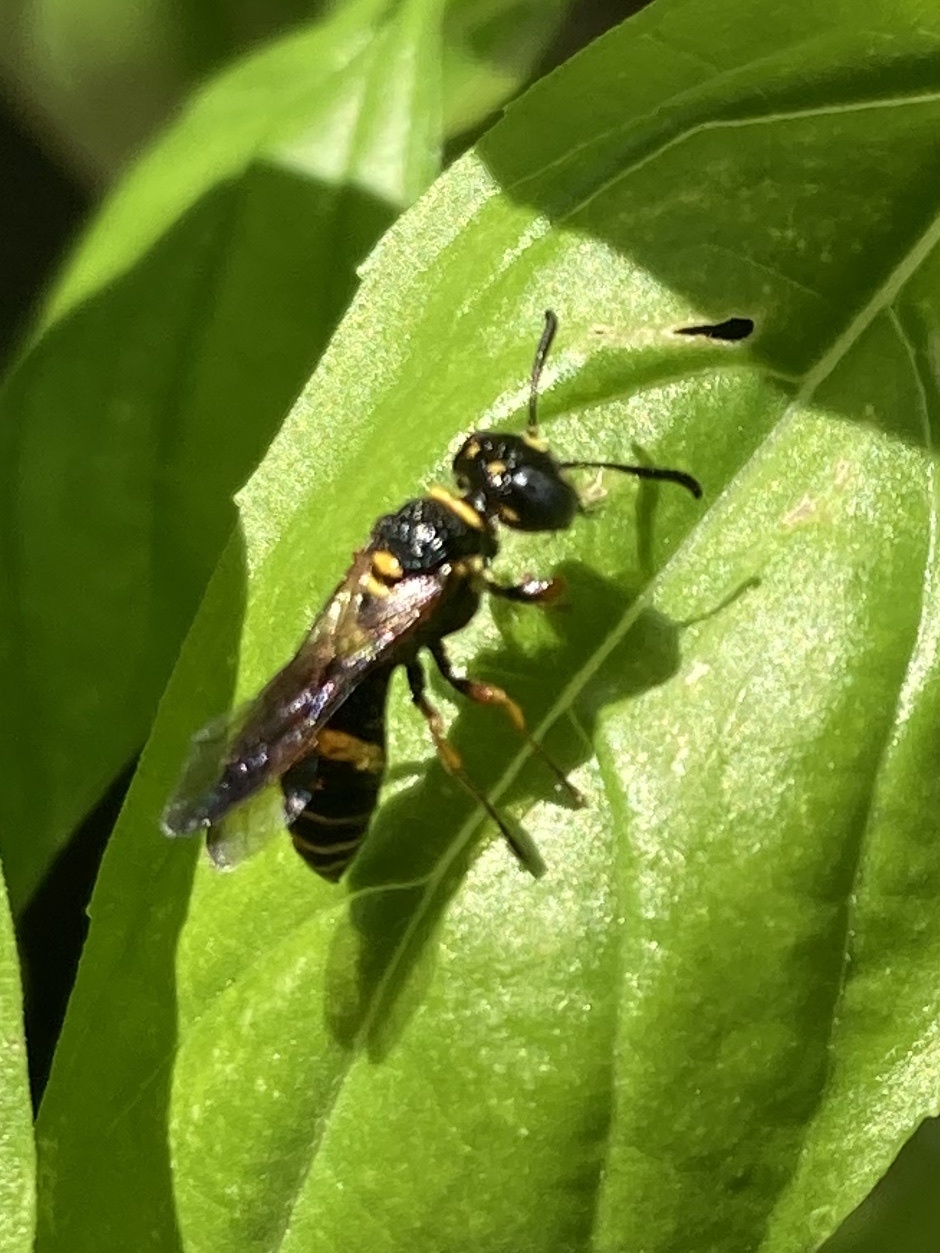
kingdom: Animalia
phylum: Arthropoda
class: Insecta
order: Hymenoptera
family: Crabronidae
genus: Philanthus
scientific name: Philanthus gibbosus
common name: Humped beewolf
